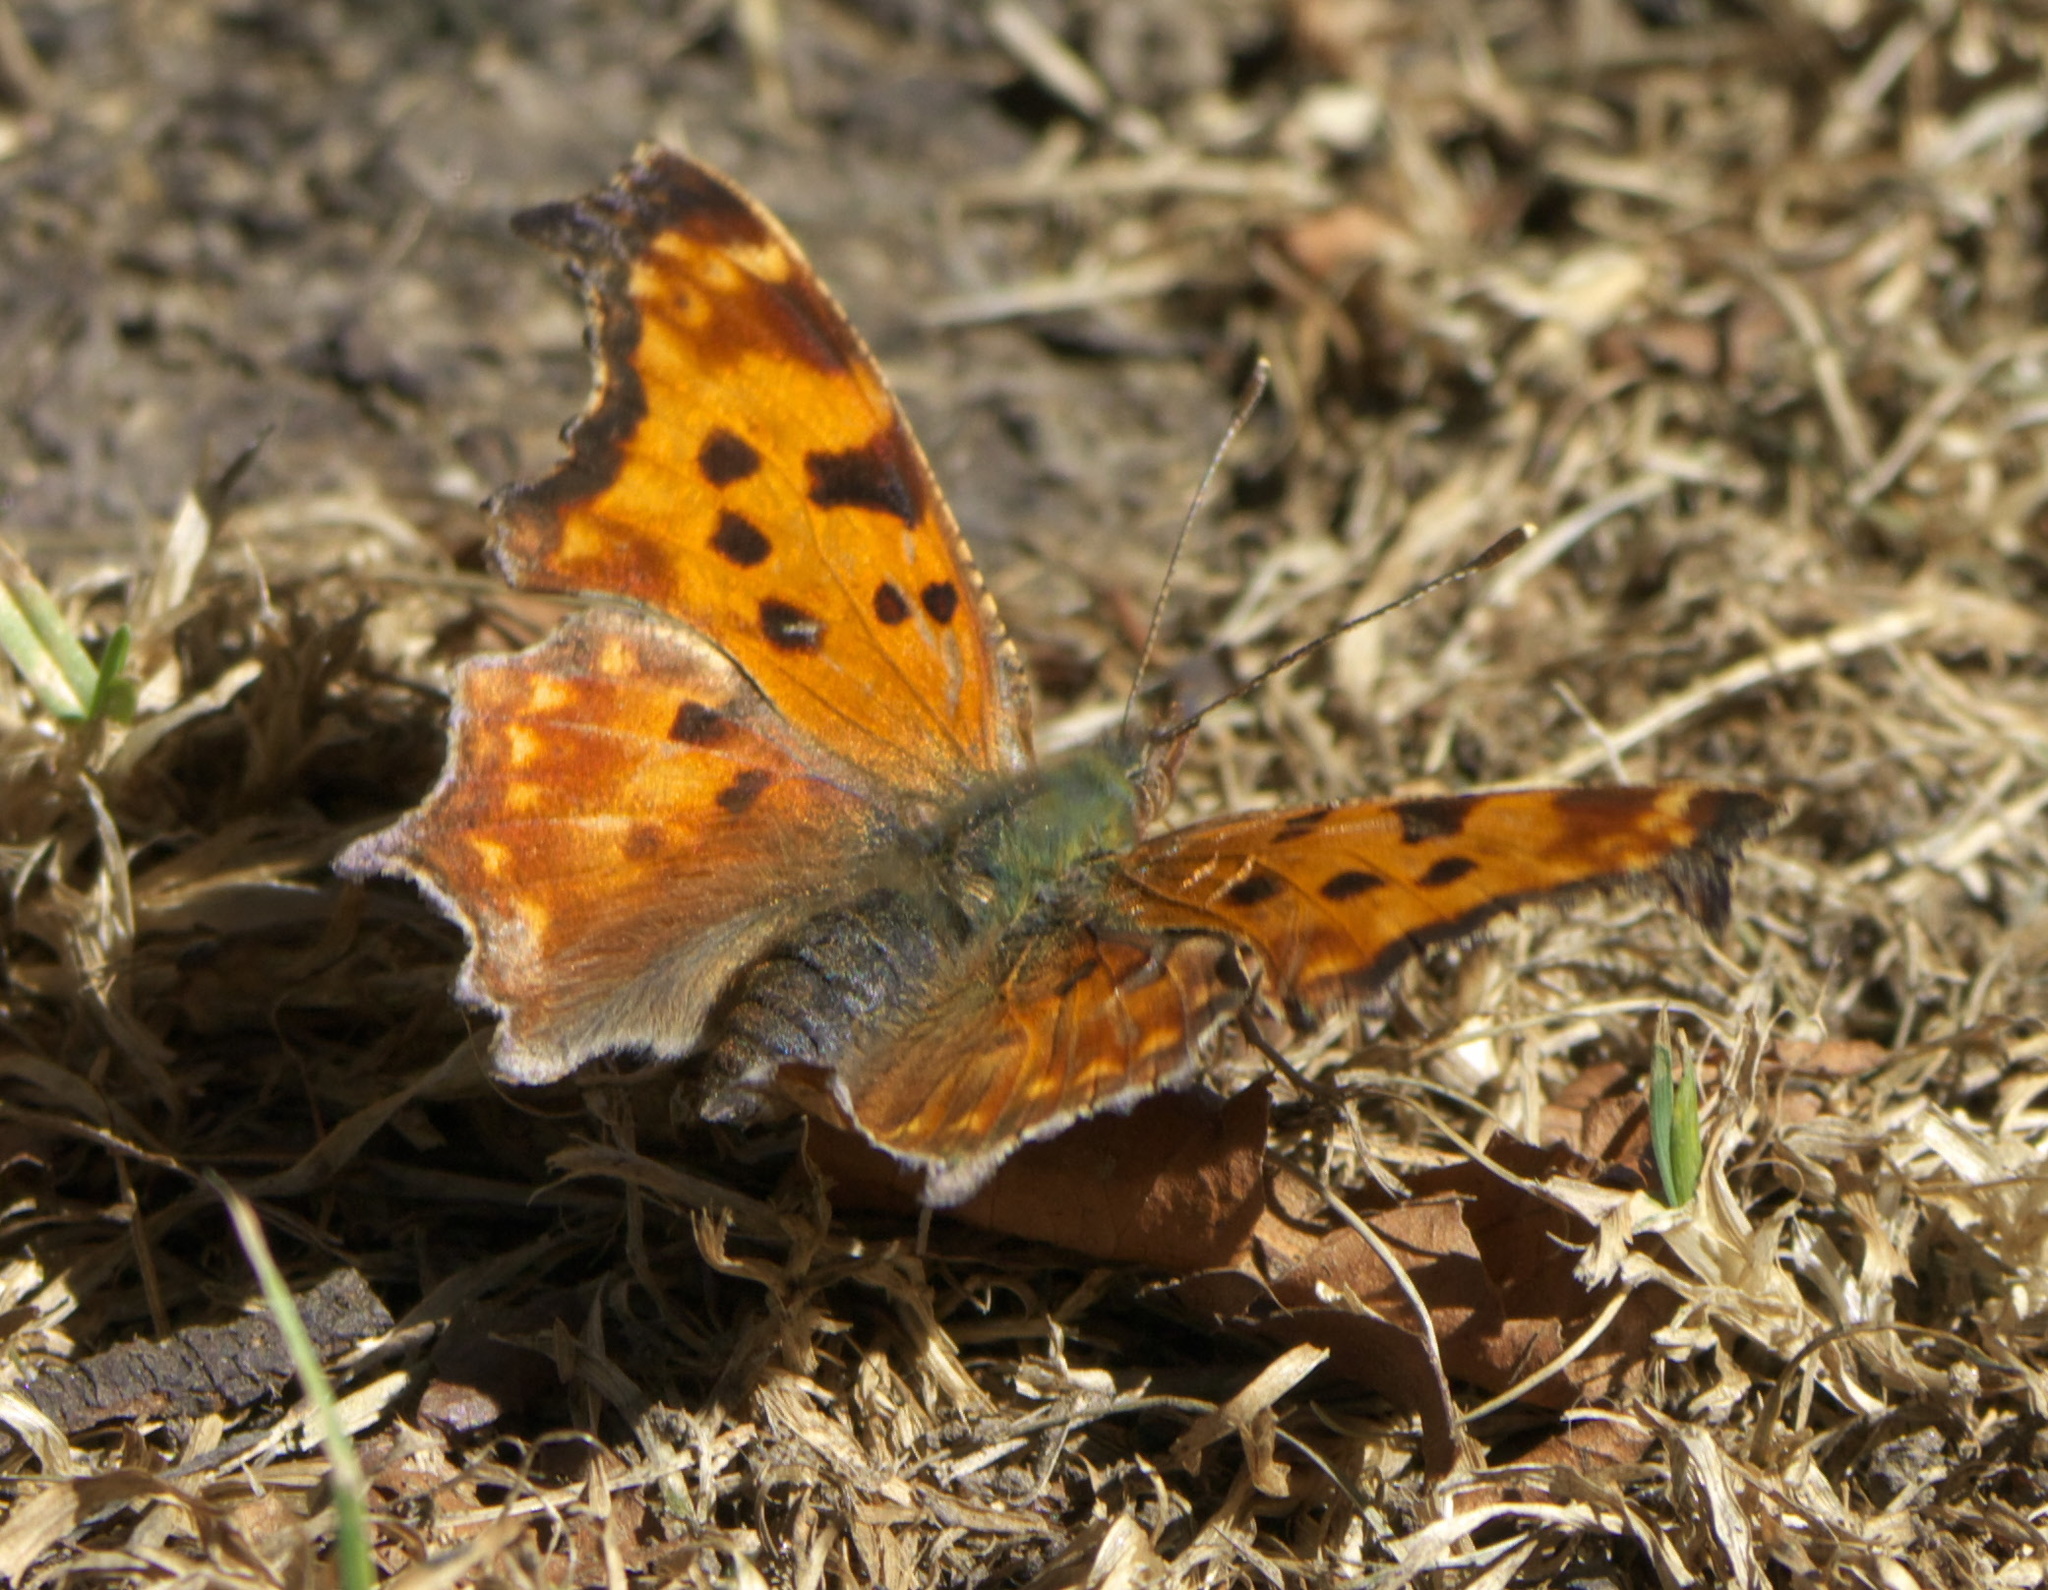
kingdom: Animalia
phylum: Arthropoda
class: Insecta
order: Lepidoptera
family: Nymphalidae
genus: Polygonia
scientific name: Polygonia comma
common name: Eastern comma
